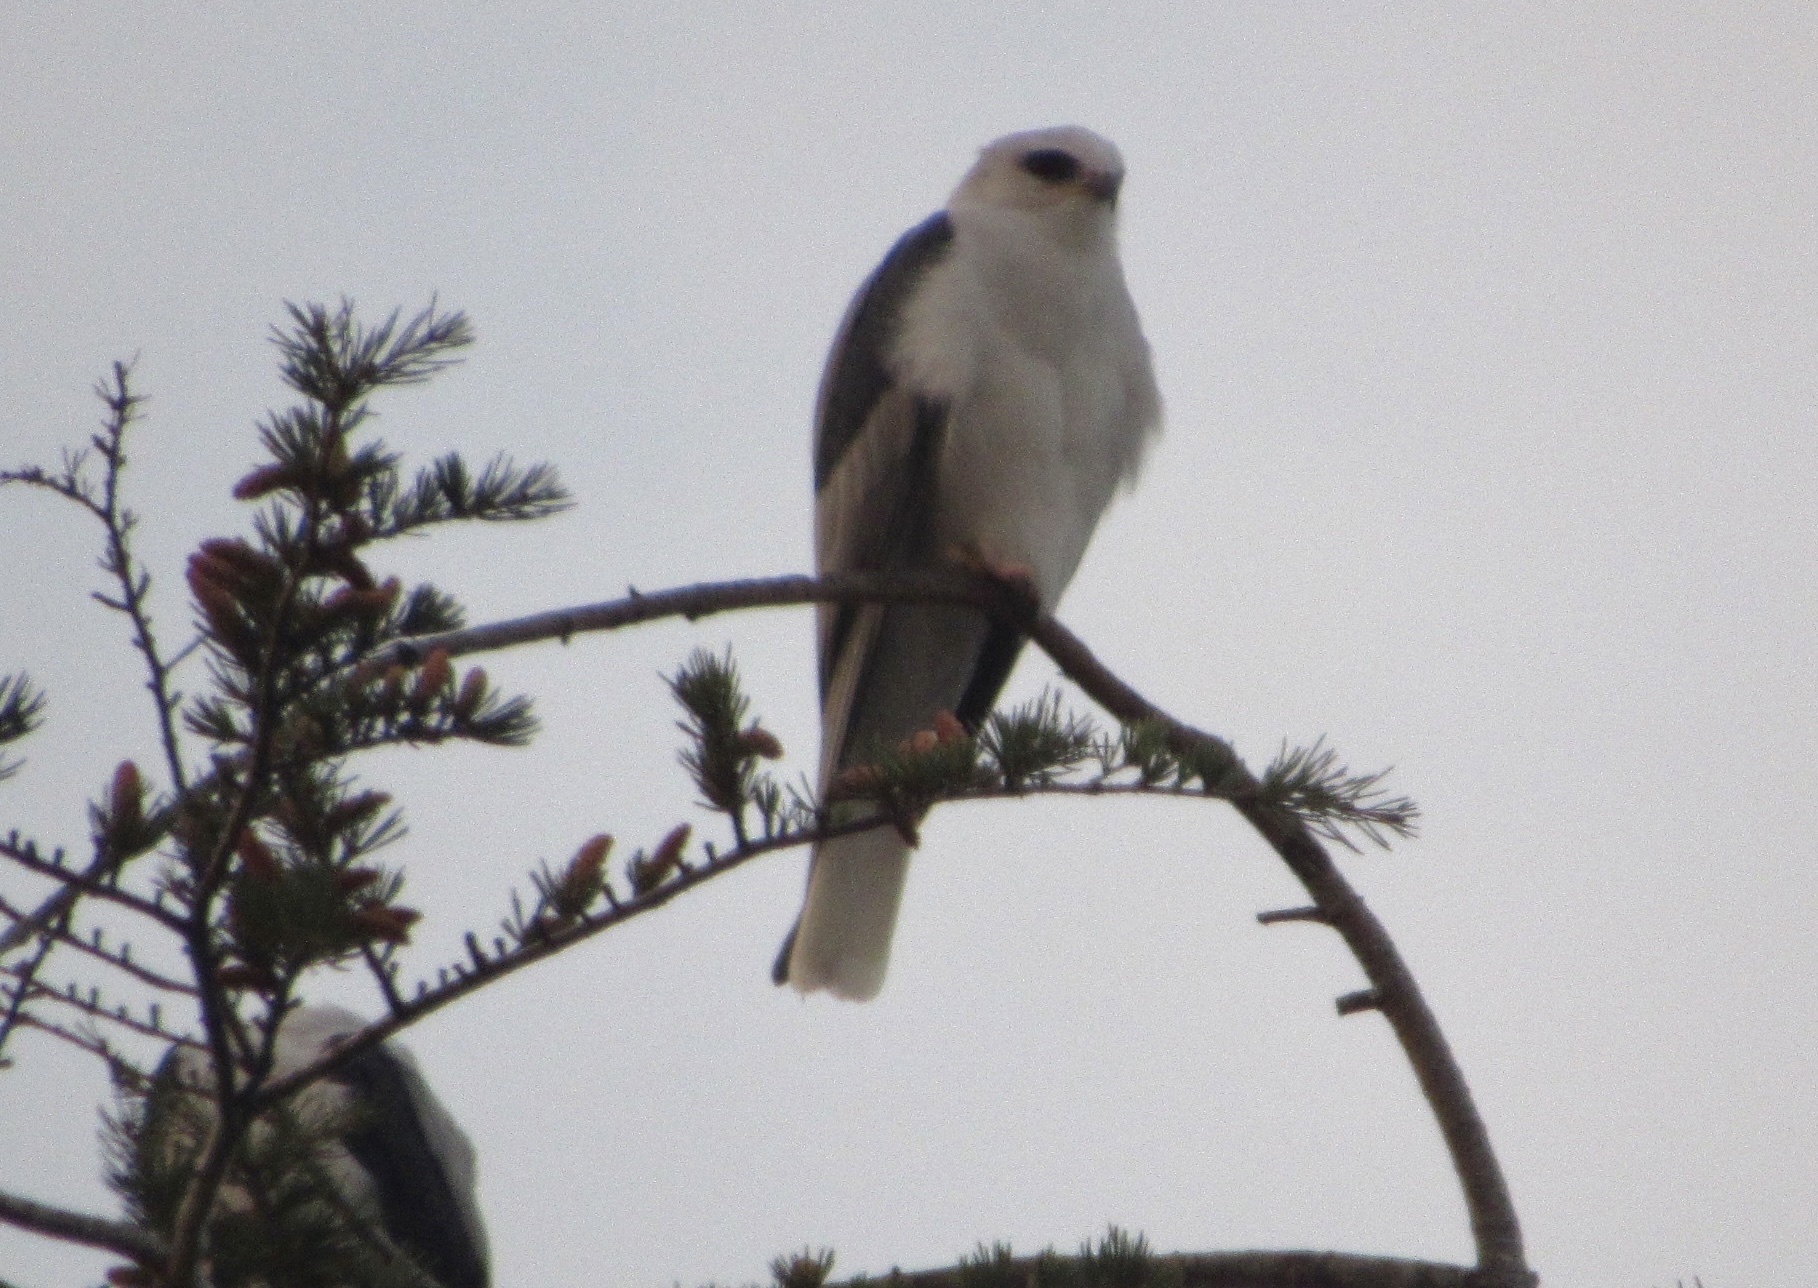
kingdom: Animalia
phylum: Chordata
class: Aves
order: Accipitriformes
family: Accipitridae
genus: Elanus
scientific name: Elanus leucurus
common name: White-tailed kite
